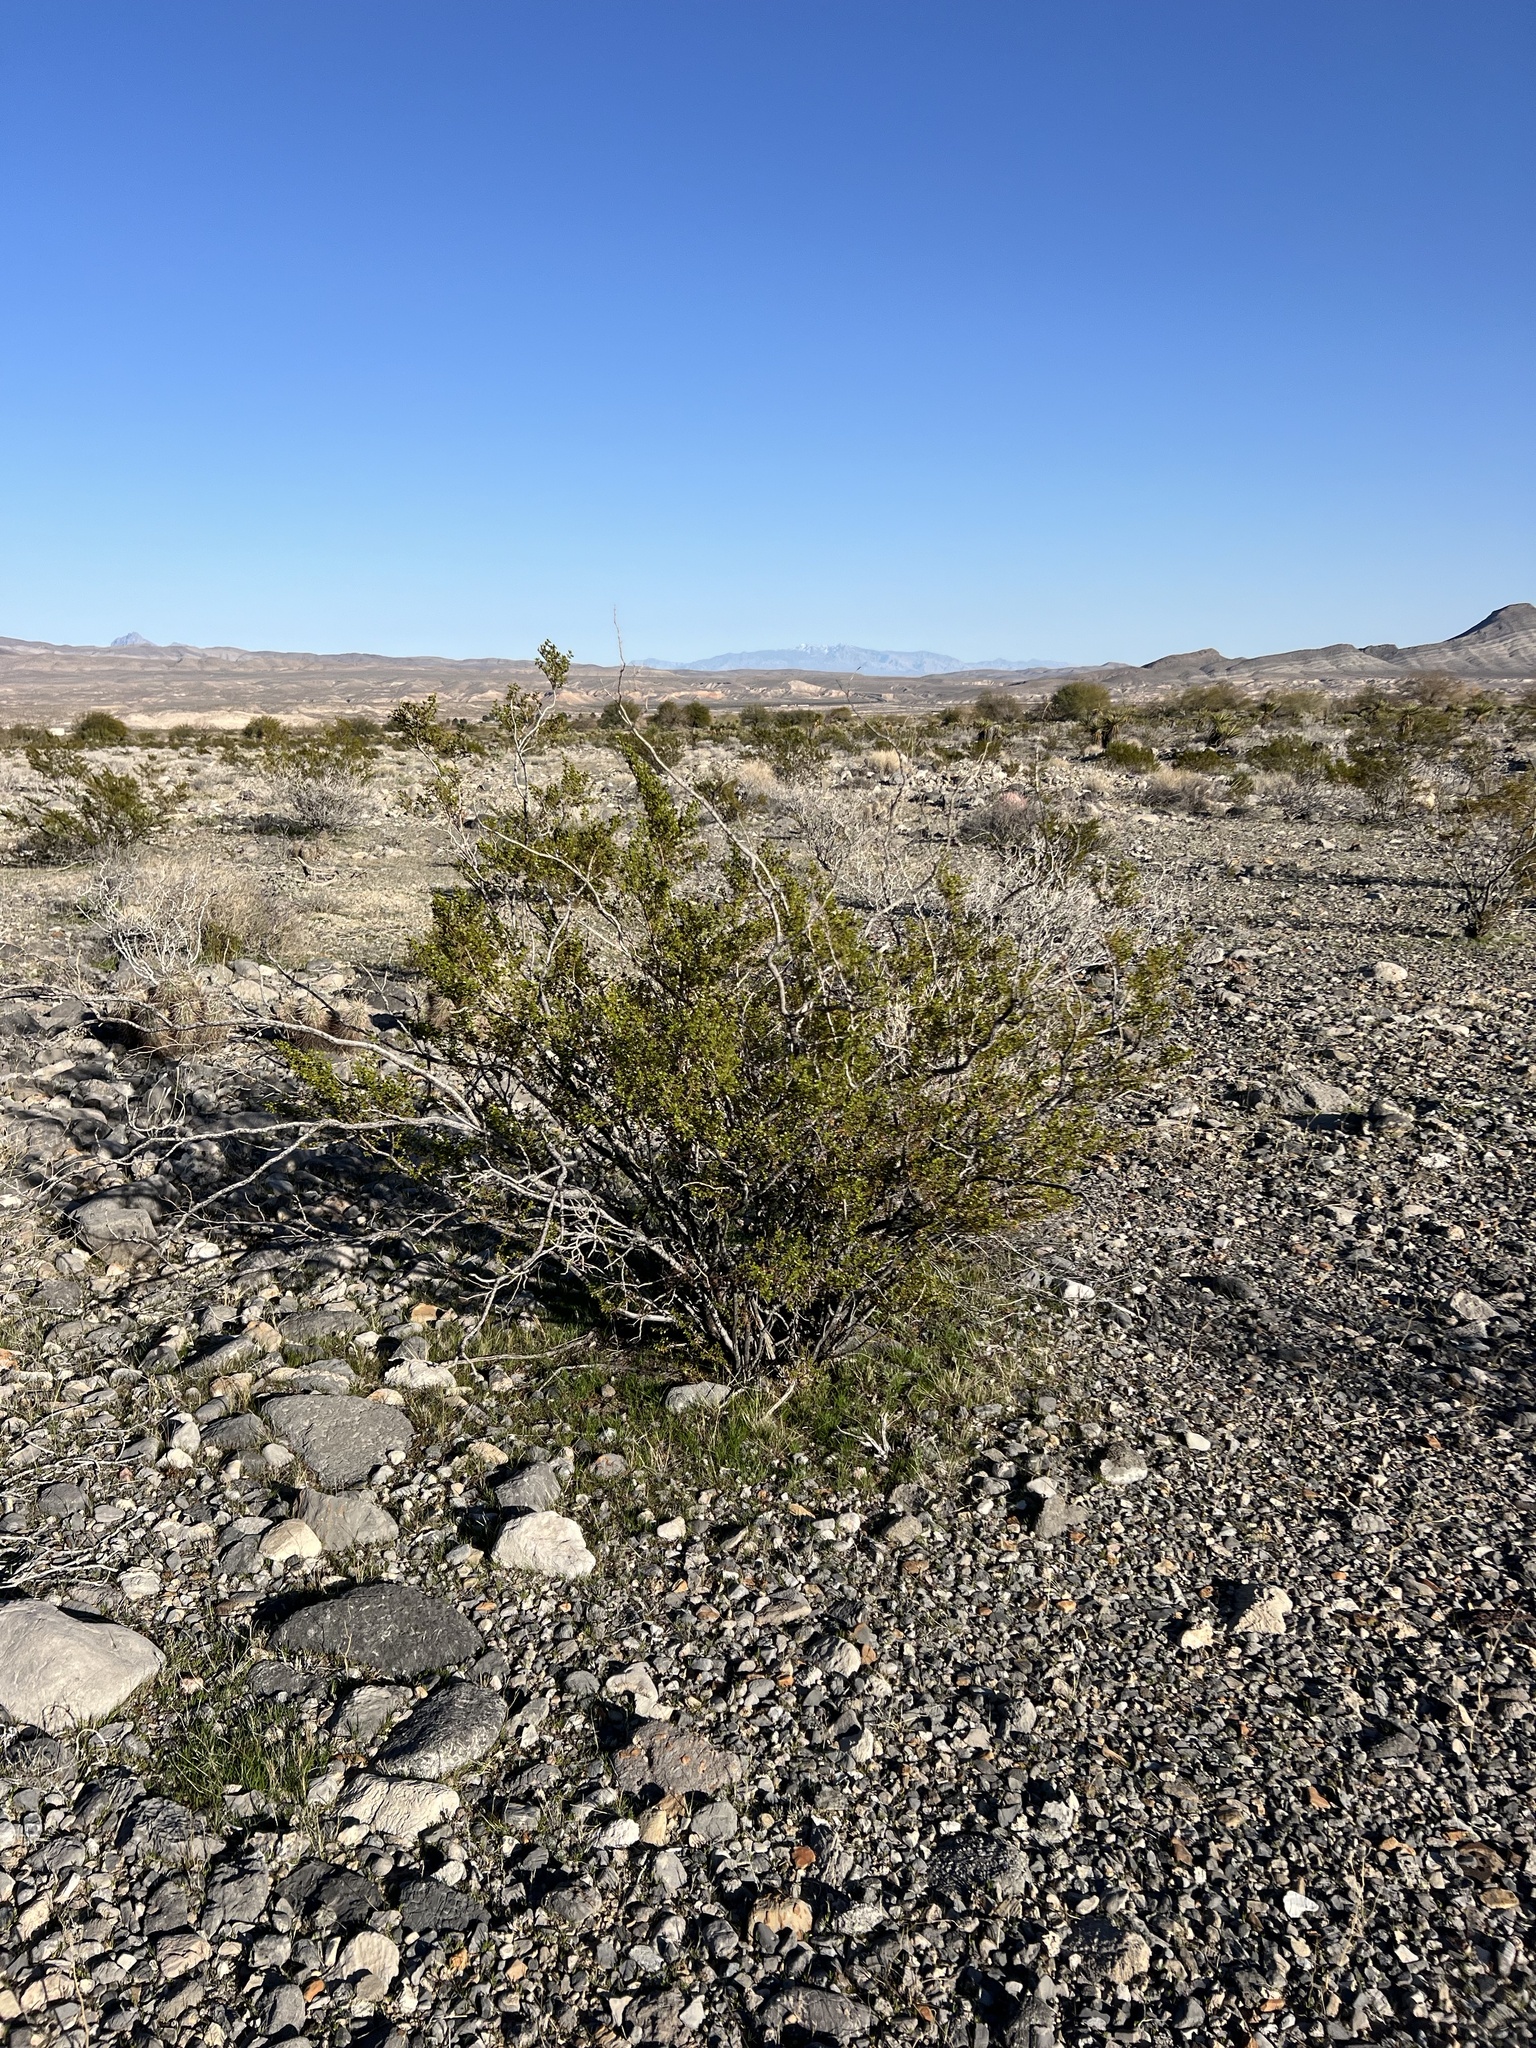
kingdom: Plantae
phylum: Tracheophyta
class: Magnoliopsida
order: Zygophyllales
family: Zygophyllaceae
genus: Larrea
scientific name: Larrea tridentata
